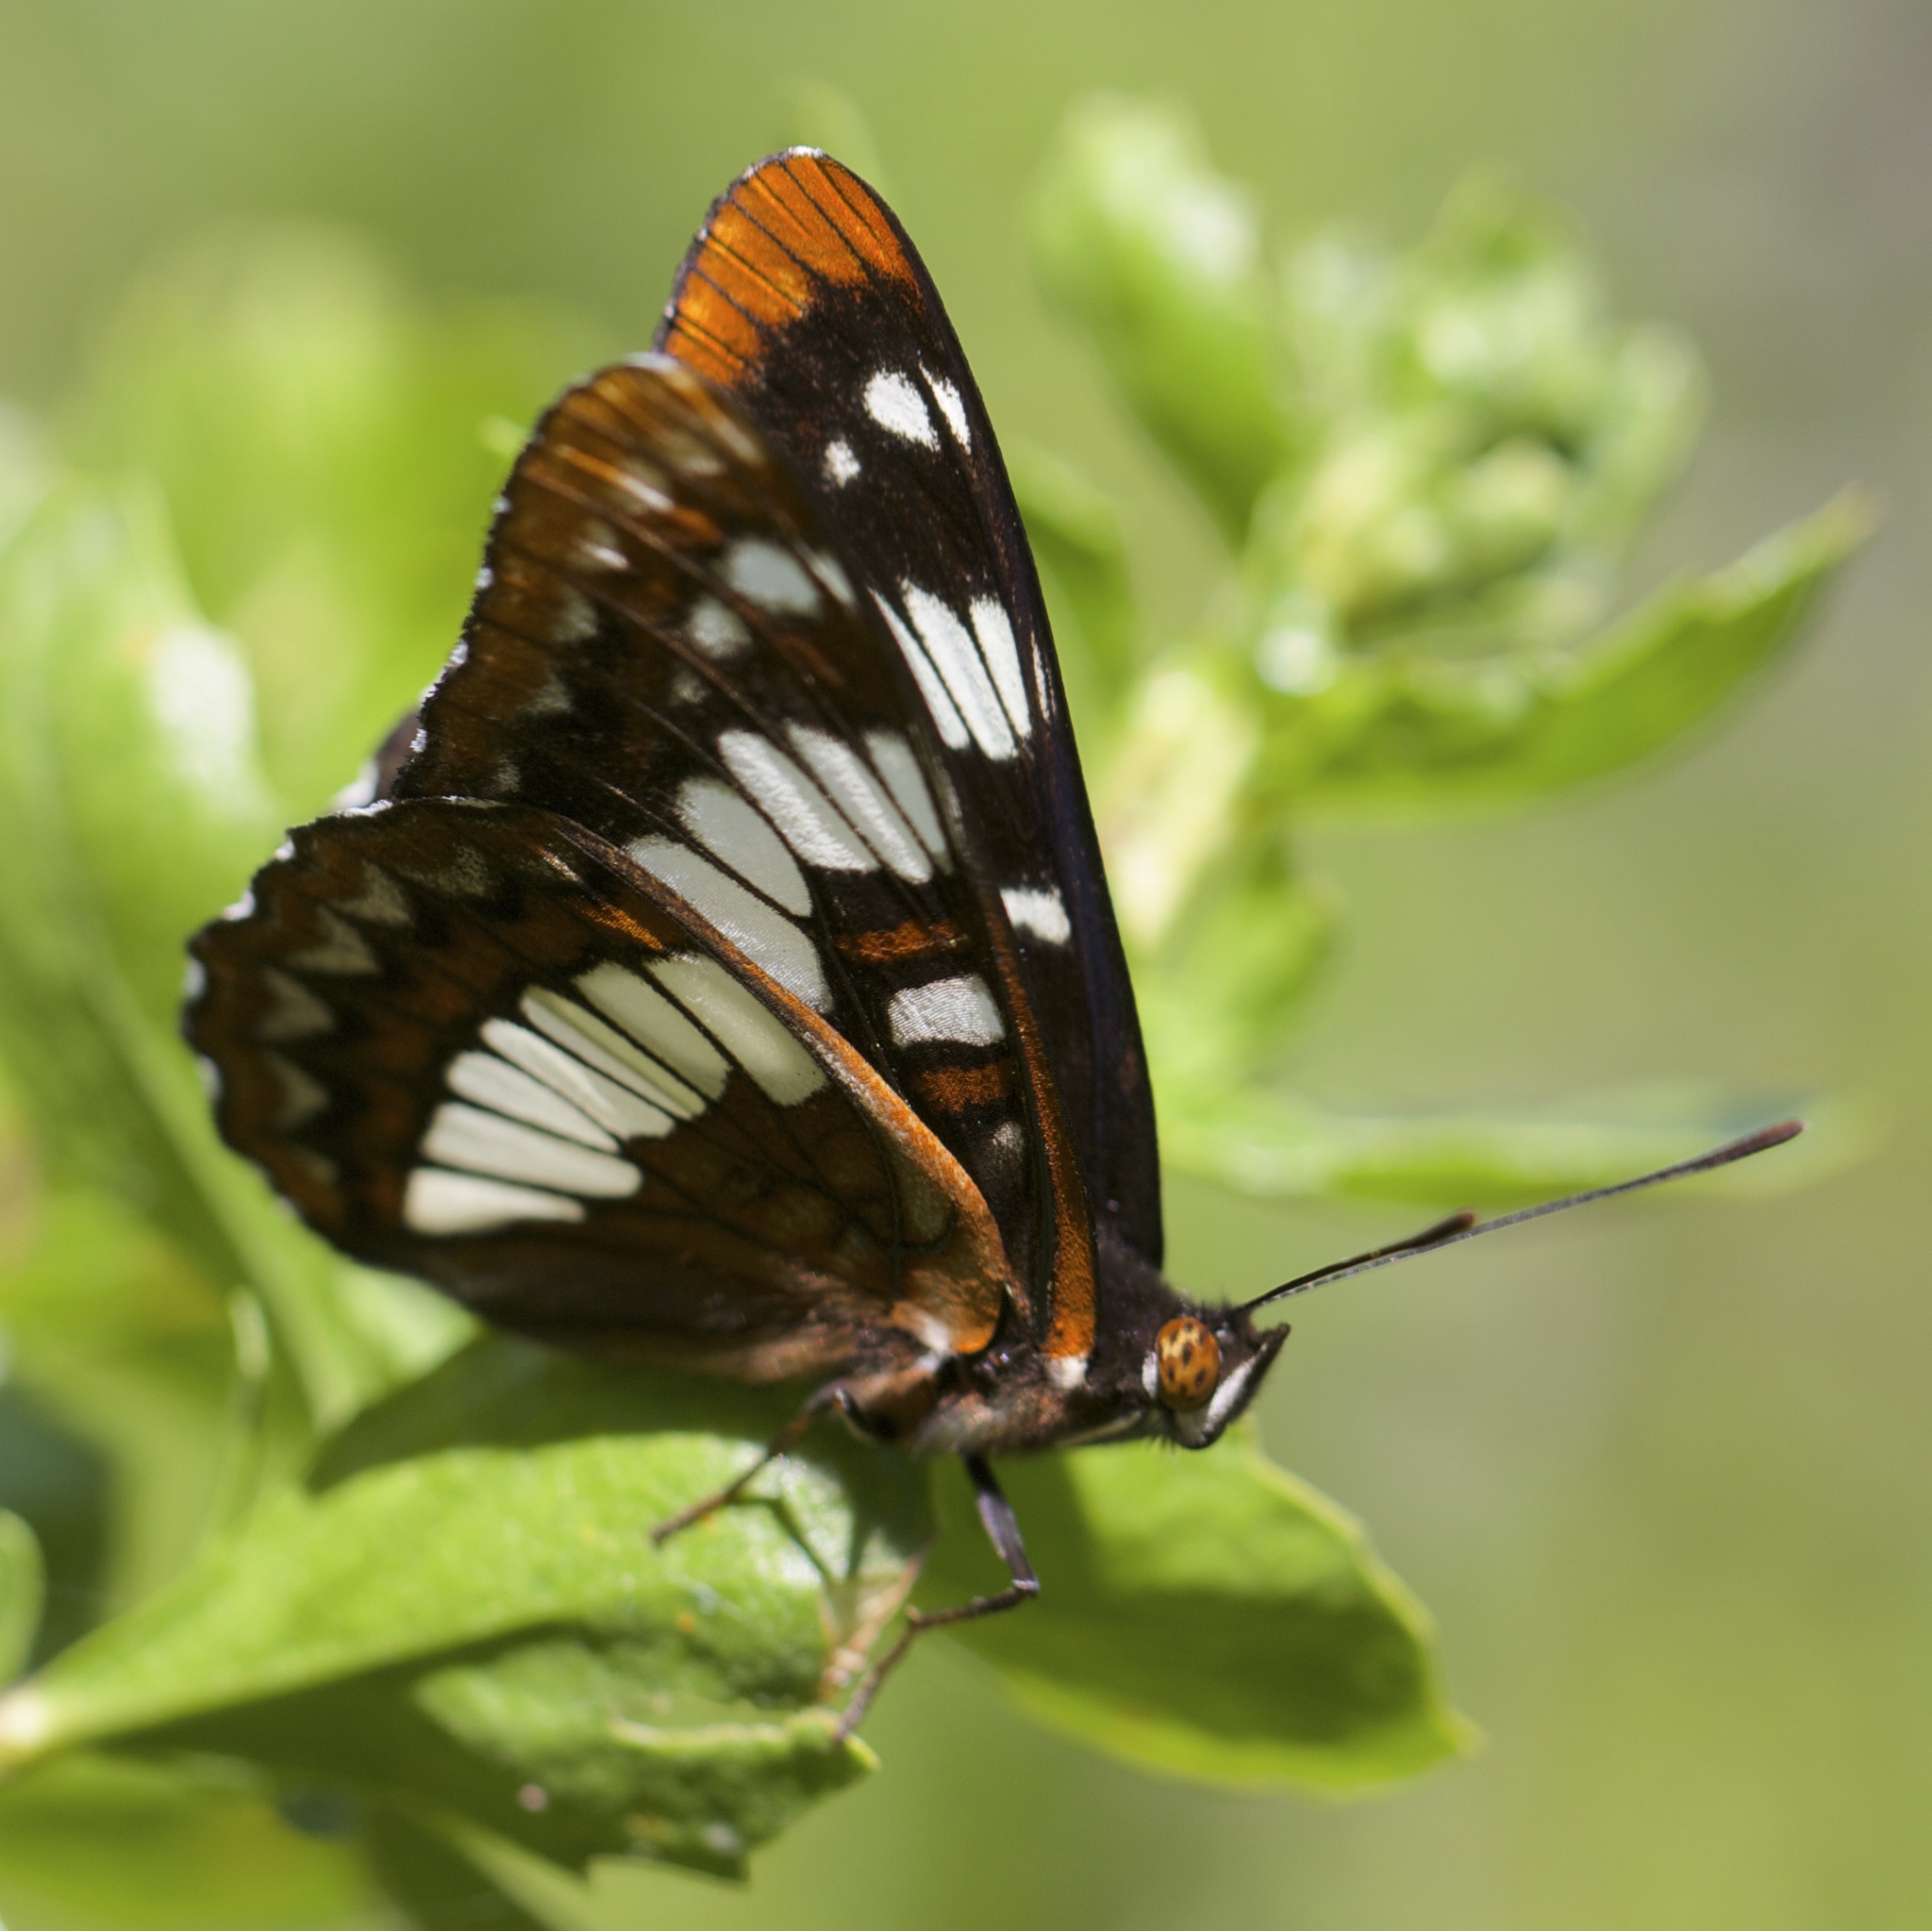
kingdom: Animalia
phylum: Arthropoda
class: Insecta
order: Lepidoptera
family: Nymphalidae
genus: Limenitis
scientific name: Limenitis lorquini
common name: Lorquin's admiral
